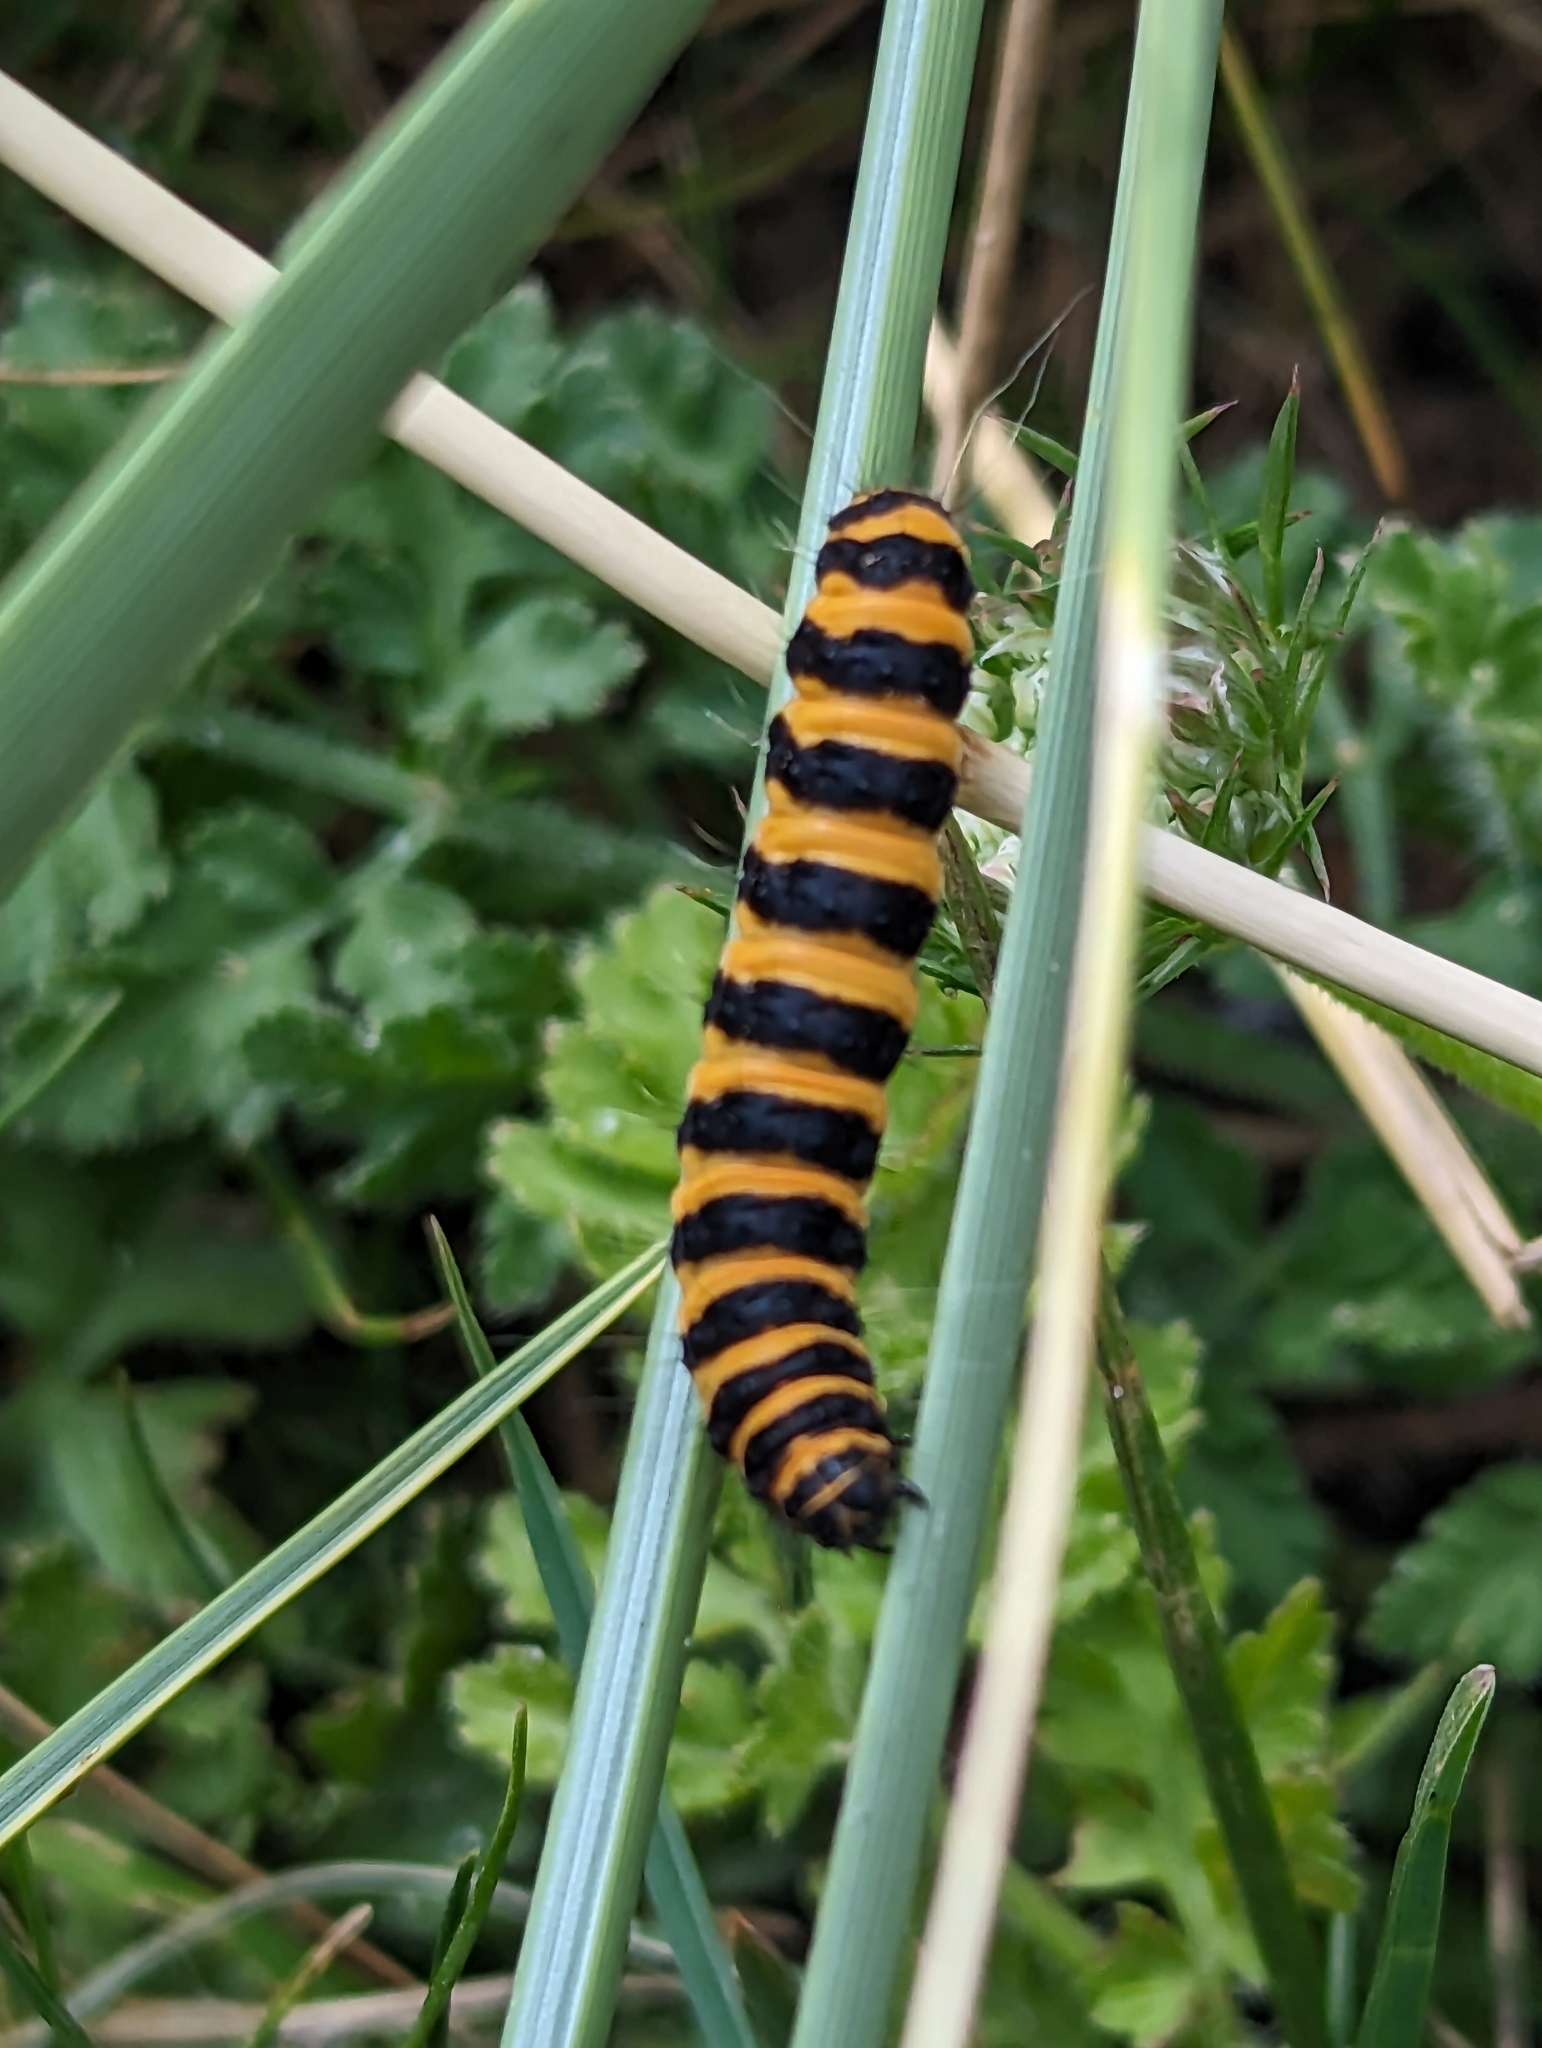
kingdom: Animalia
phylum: Arthropoda
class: Insecta
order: Lepidoptera
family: Erebidae
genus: Tyria
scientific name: Tyria jacobaeae
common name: Cinnabar
